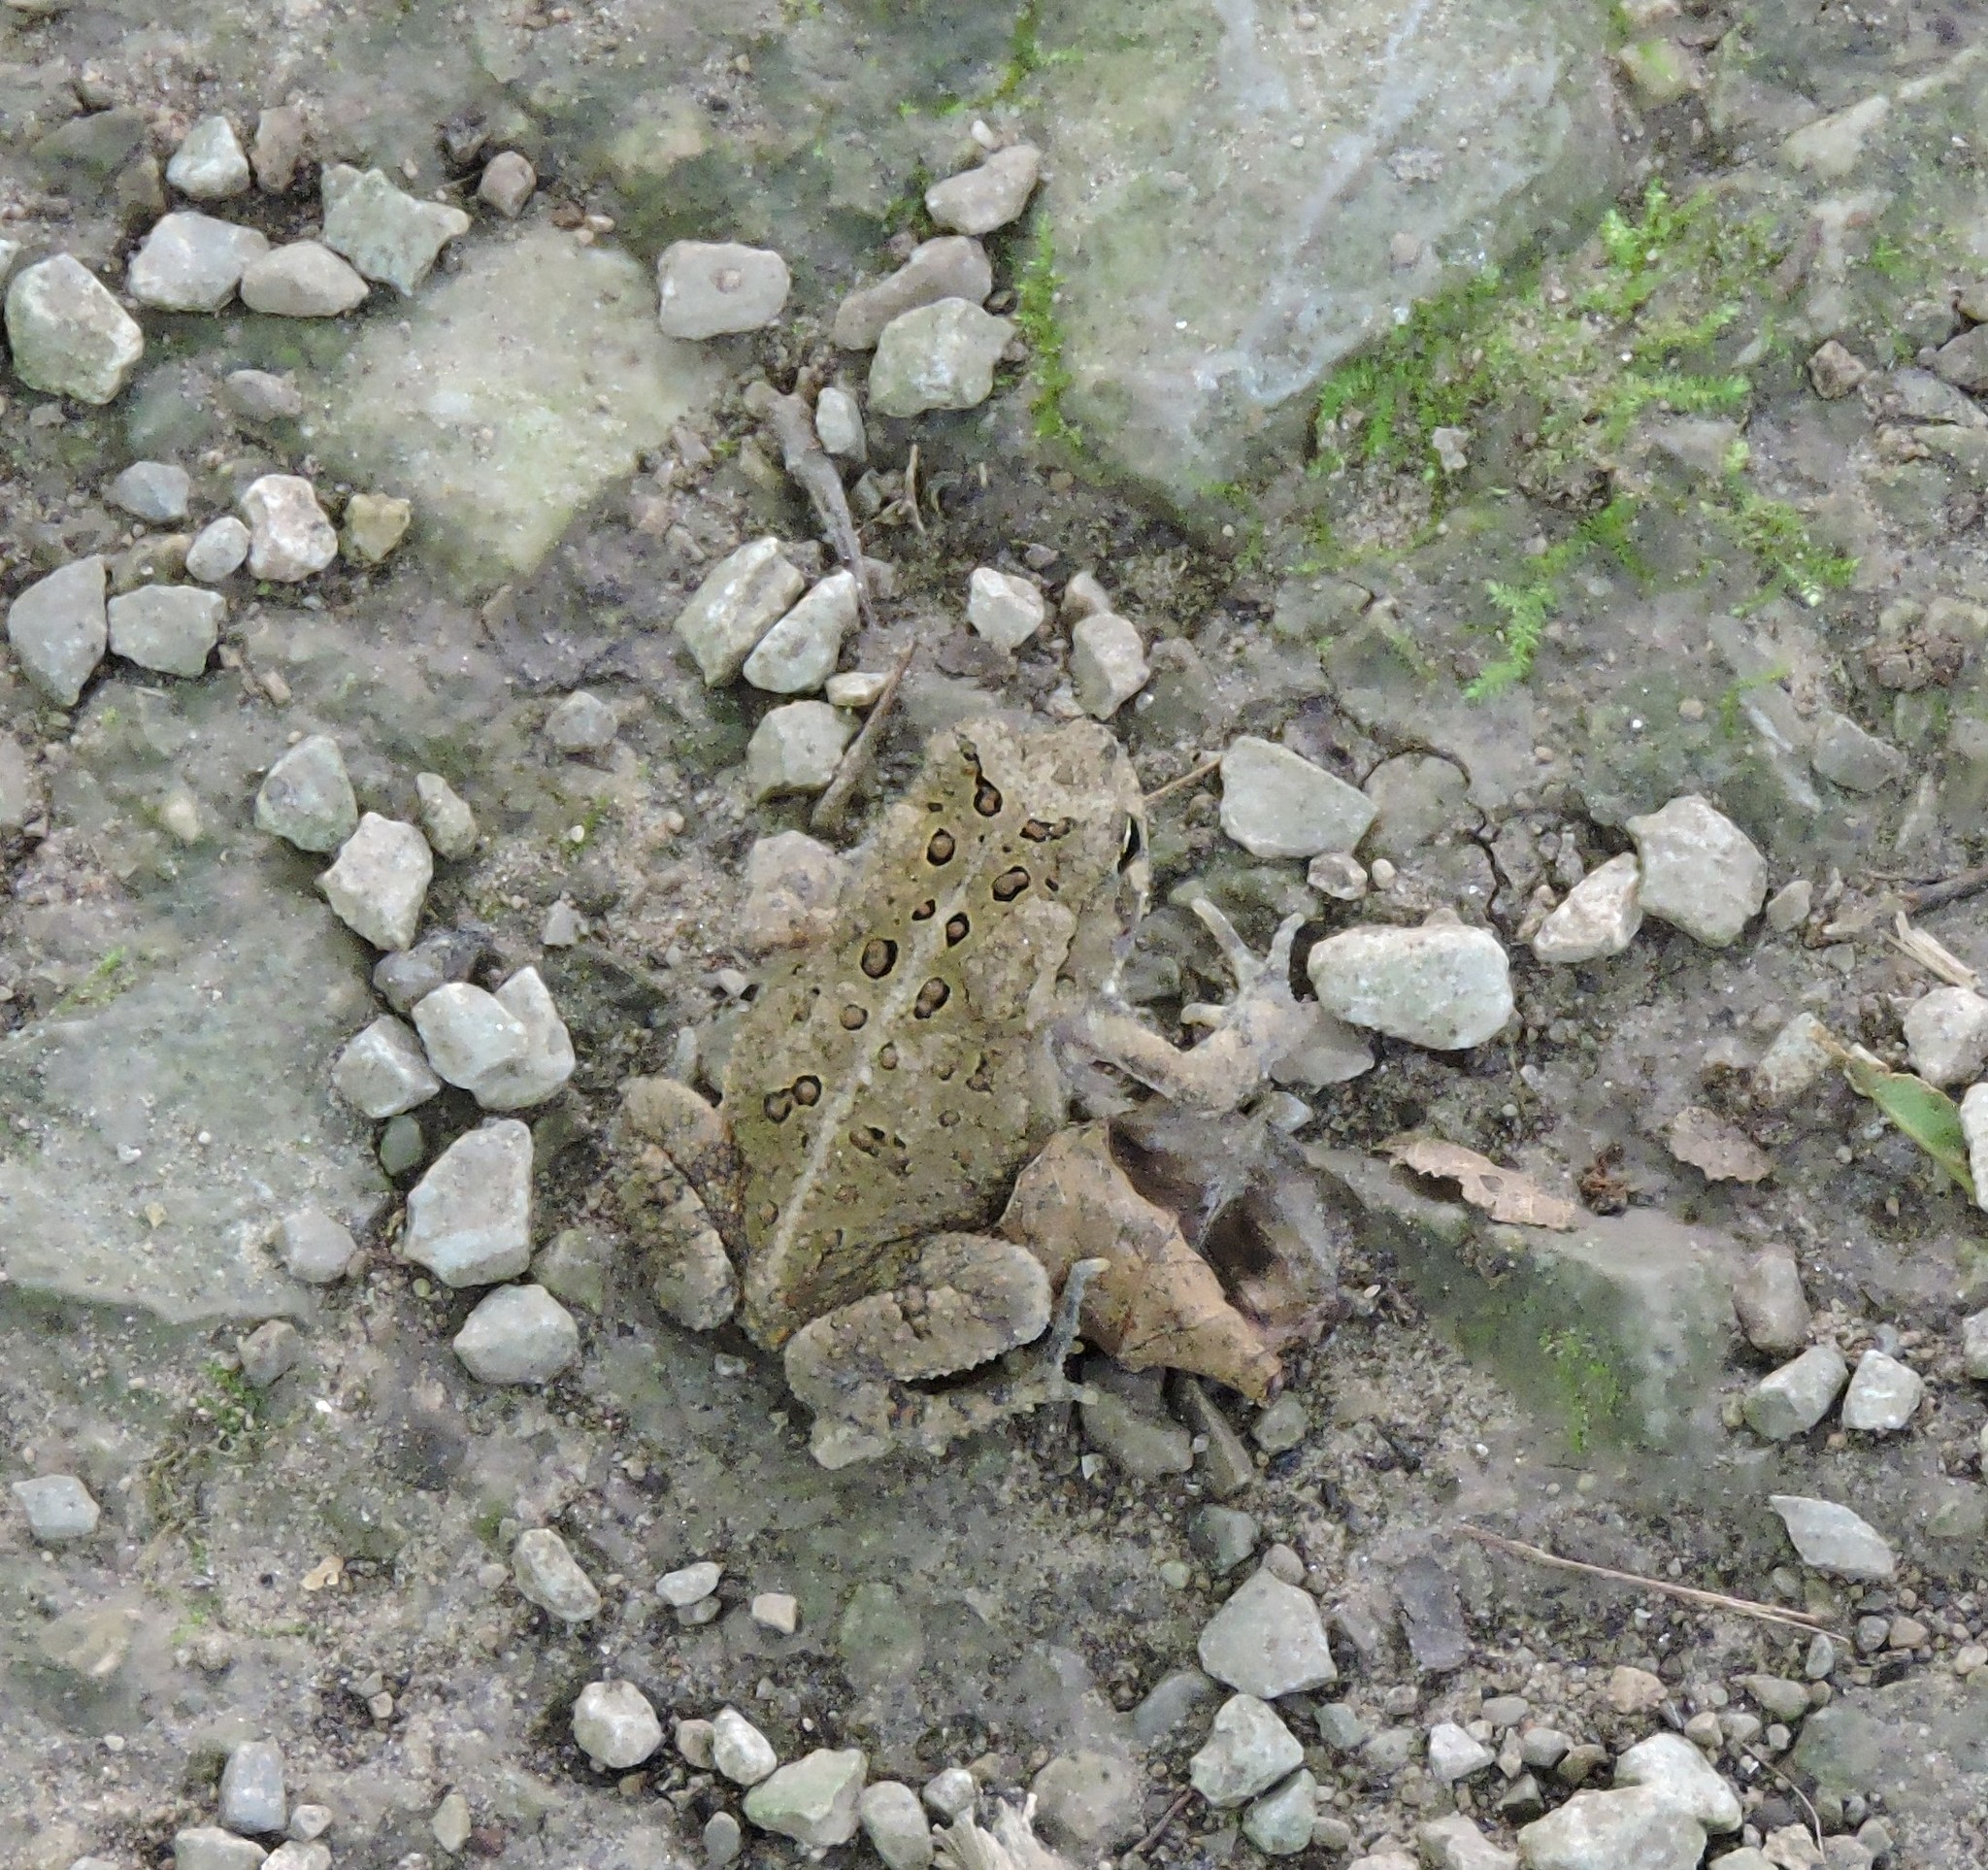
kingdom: Animalia
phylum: Chordata
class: Amphibia
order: Anura
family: Bufonidae
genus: Anaxyrus
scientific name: Anaxyrus americanus
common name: American toad
